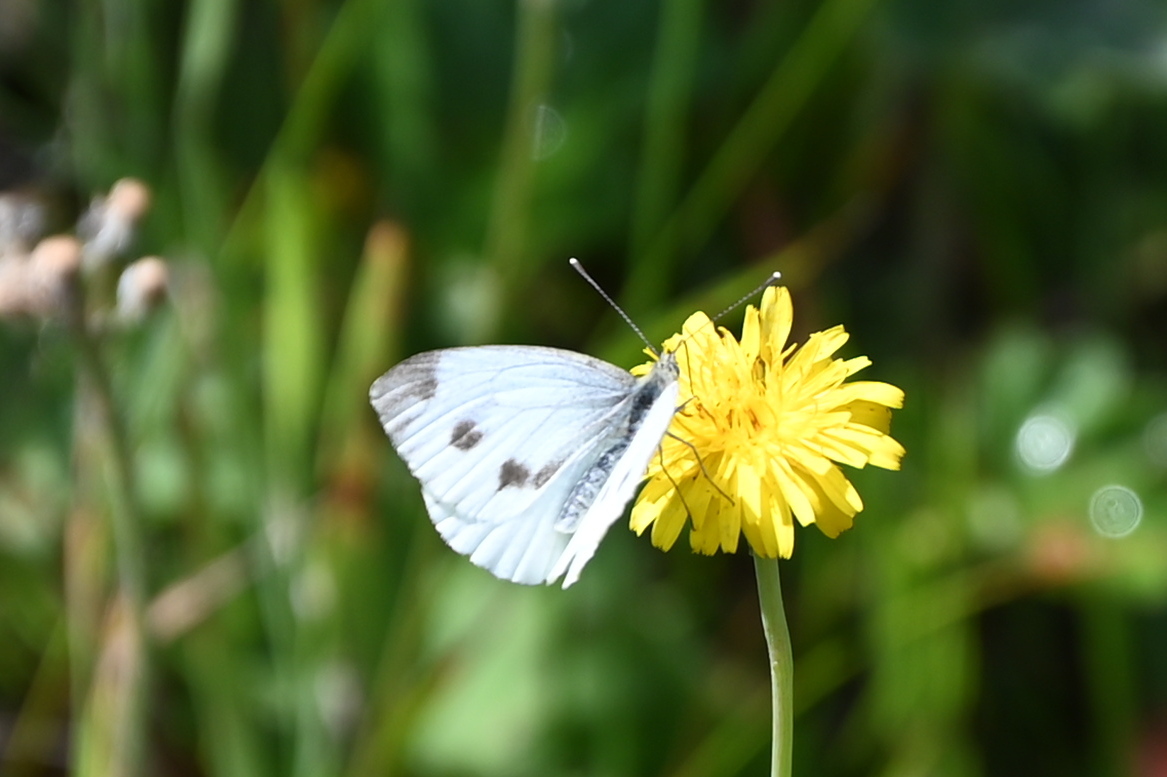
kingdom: Animalia
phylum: Arthropoda
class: Insecta
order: Lepidoptera
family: Pieridae
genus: Pieris
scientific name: Pieris napi
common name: Green-veined white
